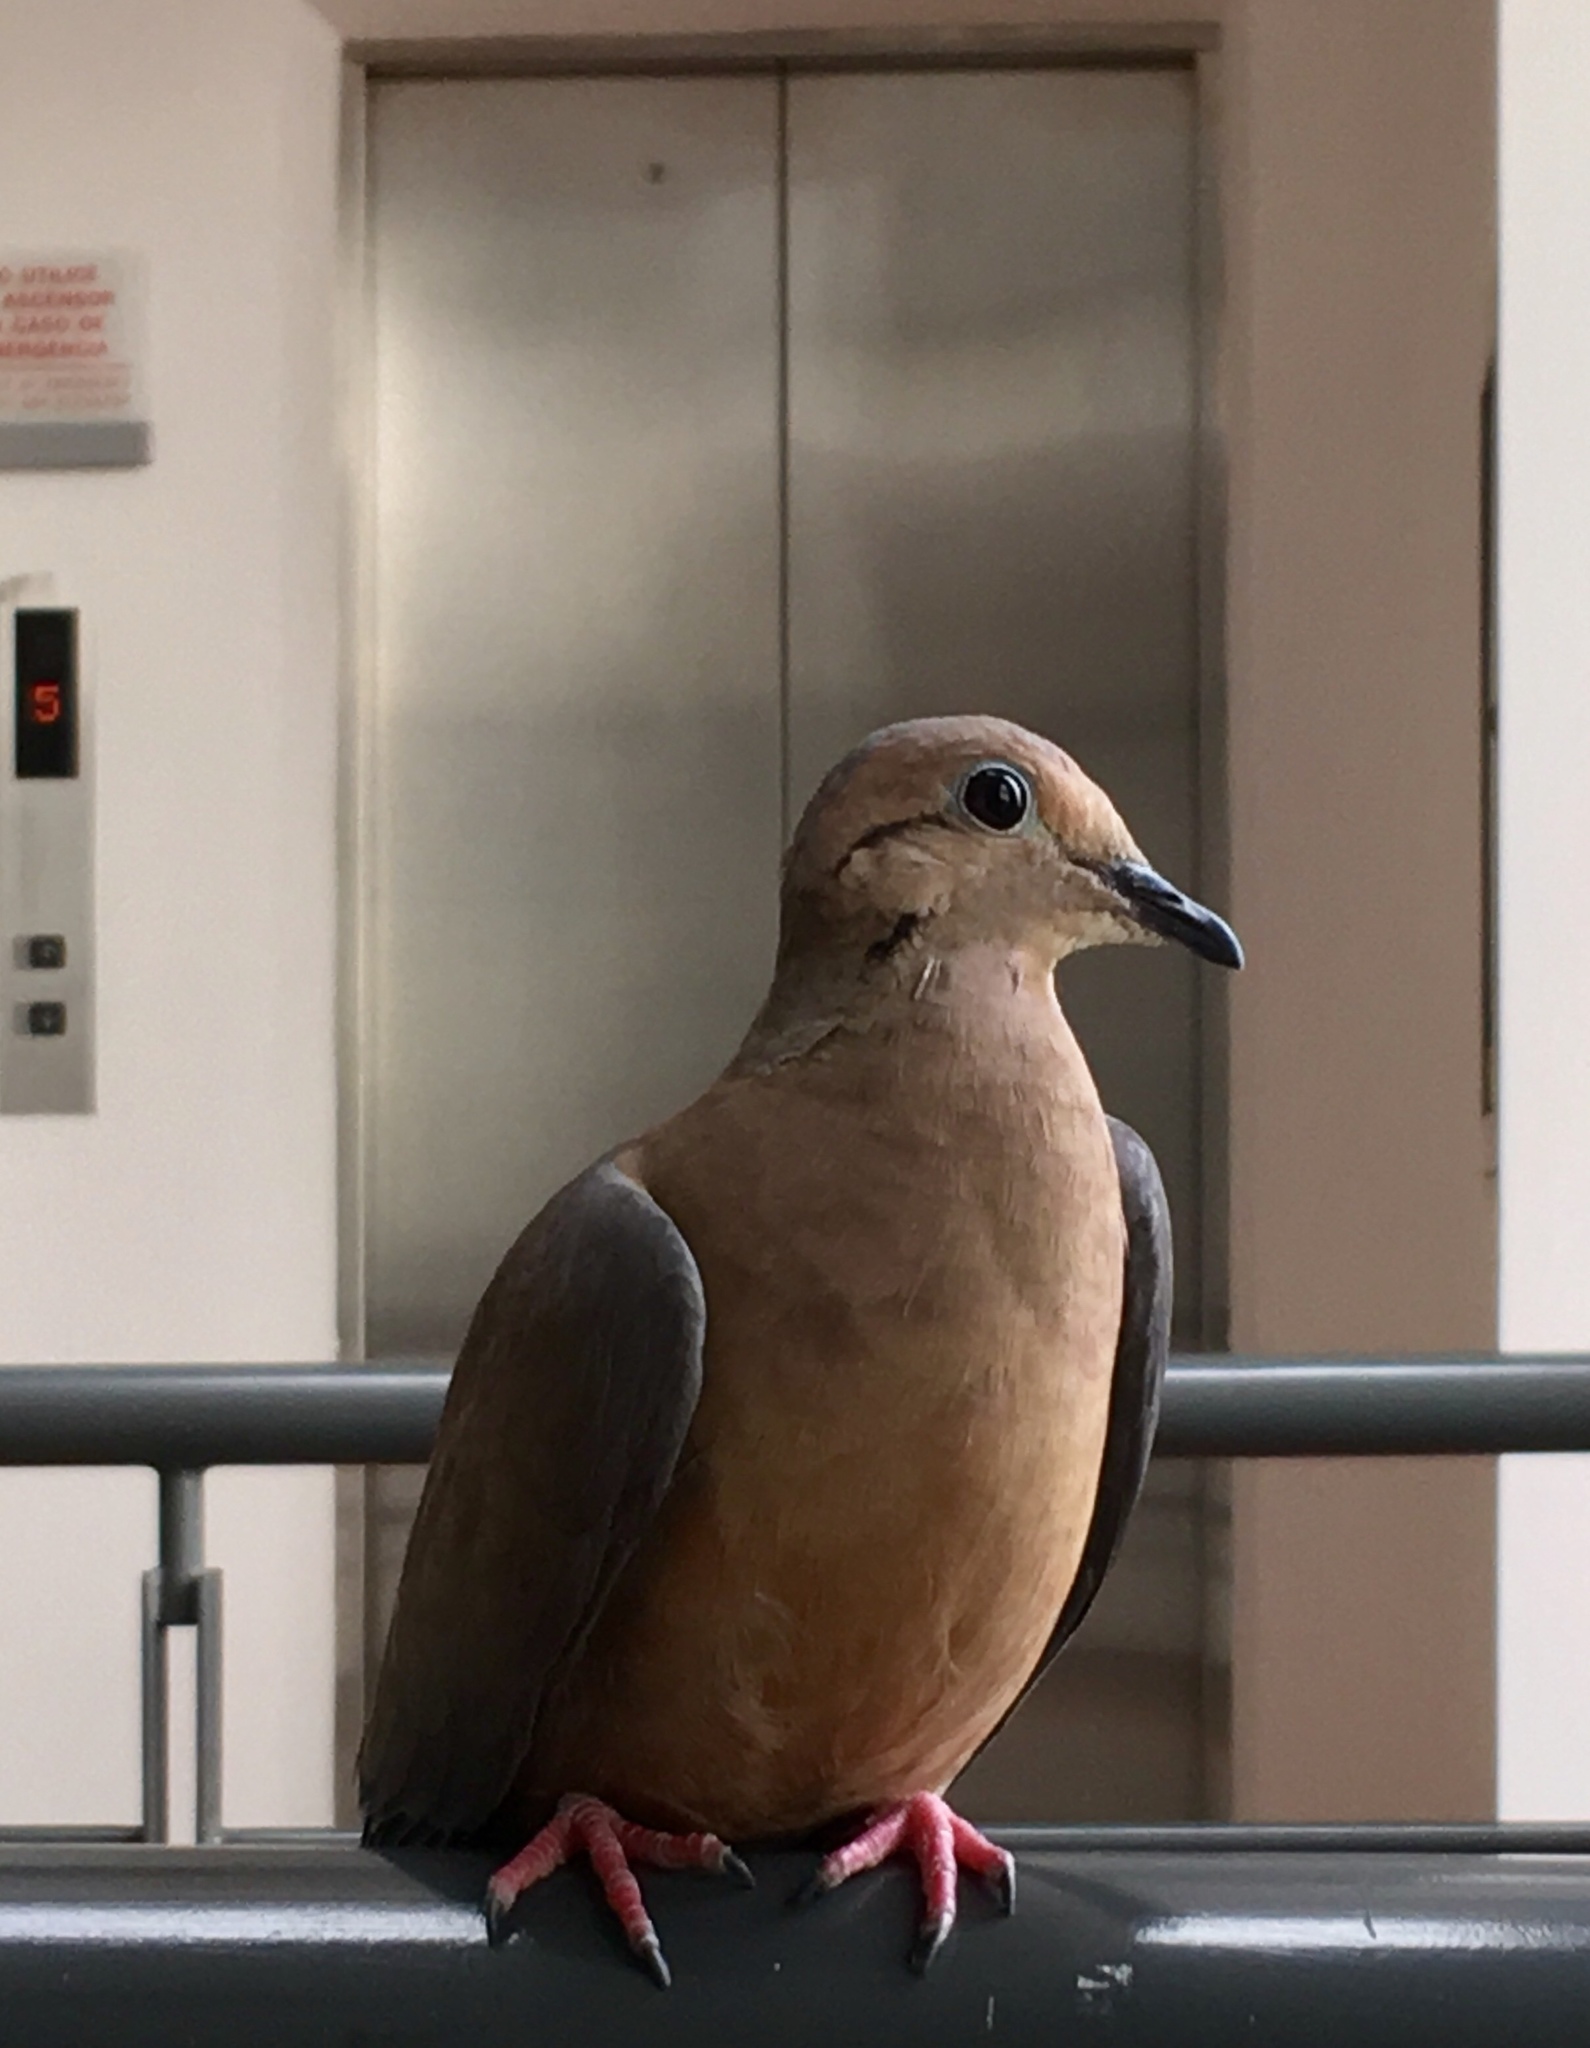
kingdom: Animalia
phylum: Chordata
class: Aves
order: Columbiformes
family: Columbidae
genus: Zenaida
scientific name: Zenaida auriculata
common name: Eared dove
